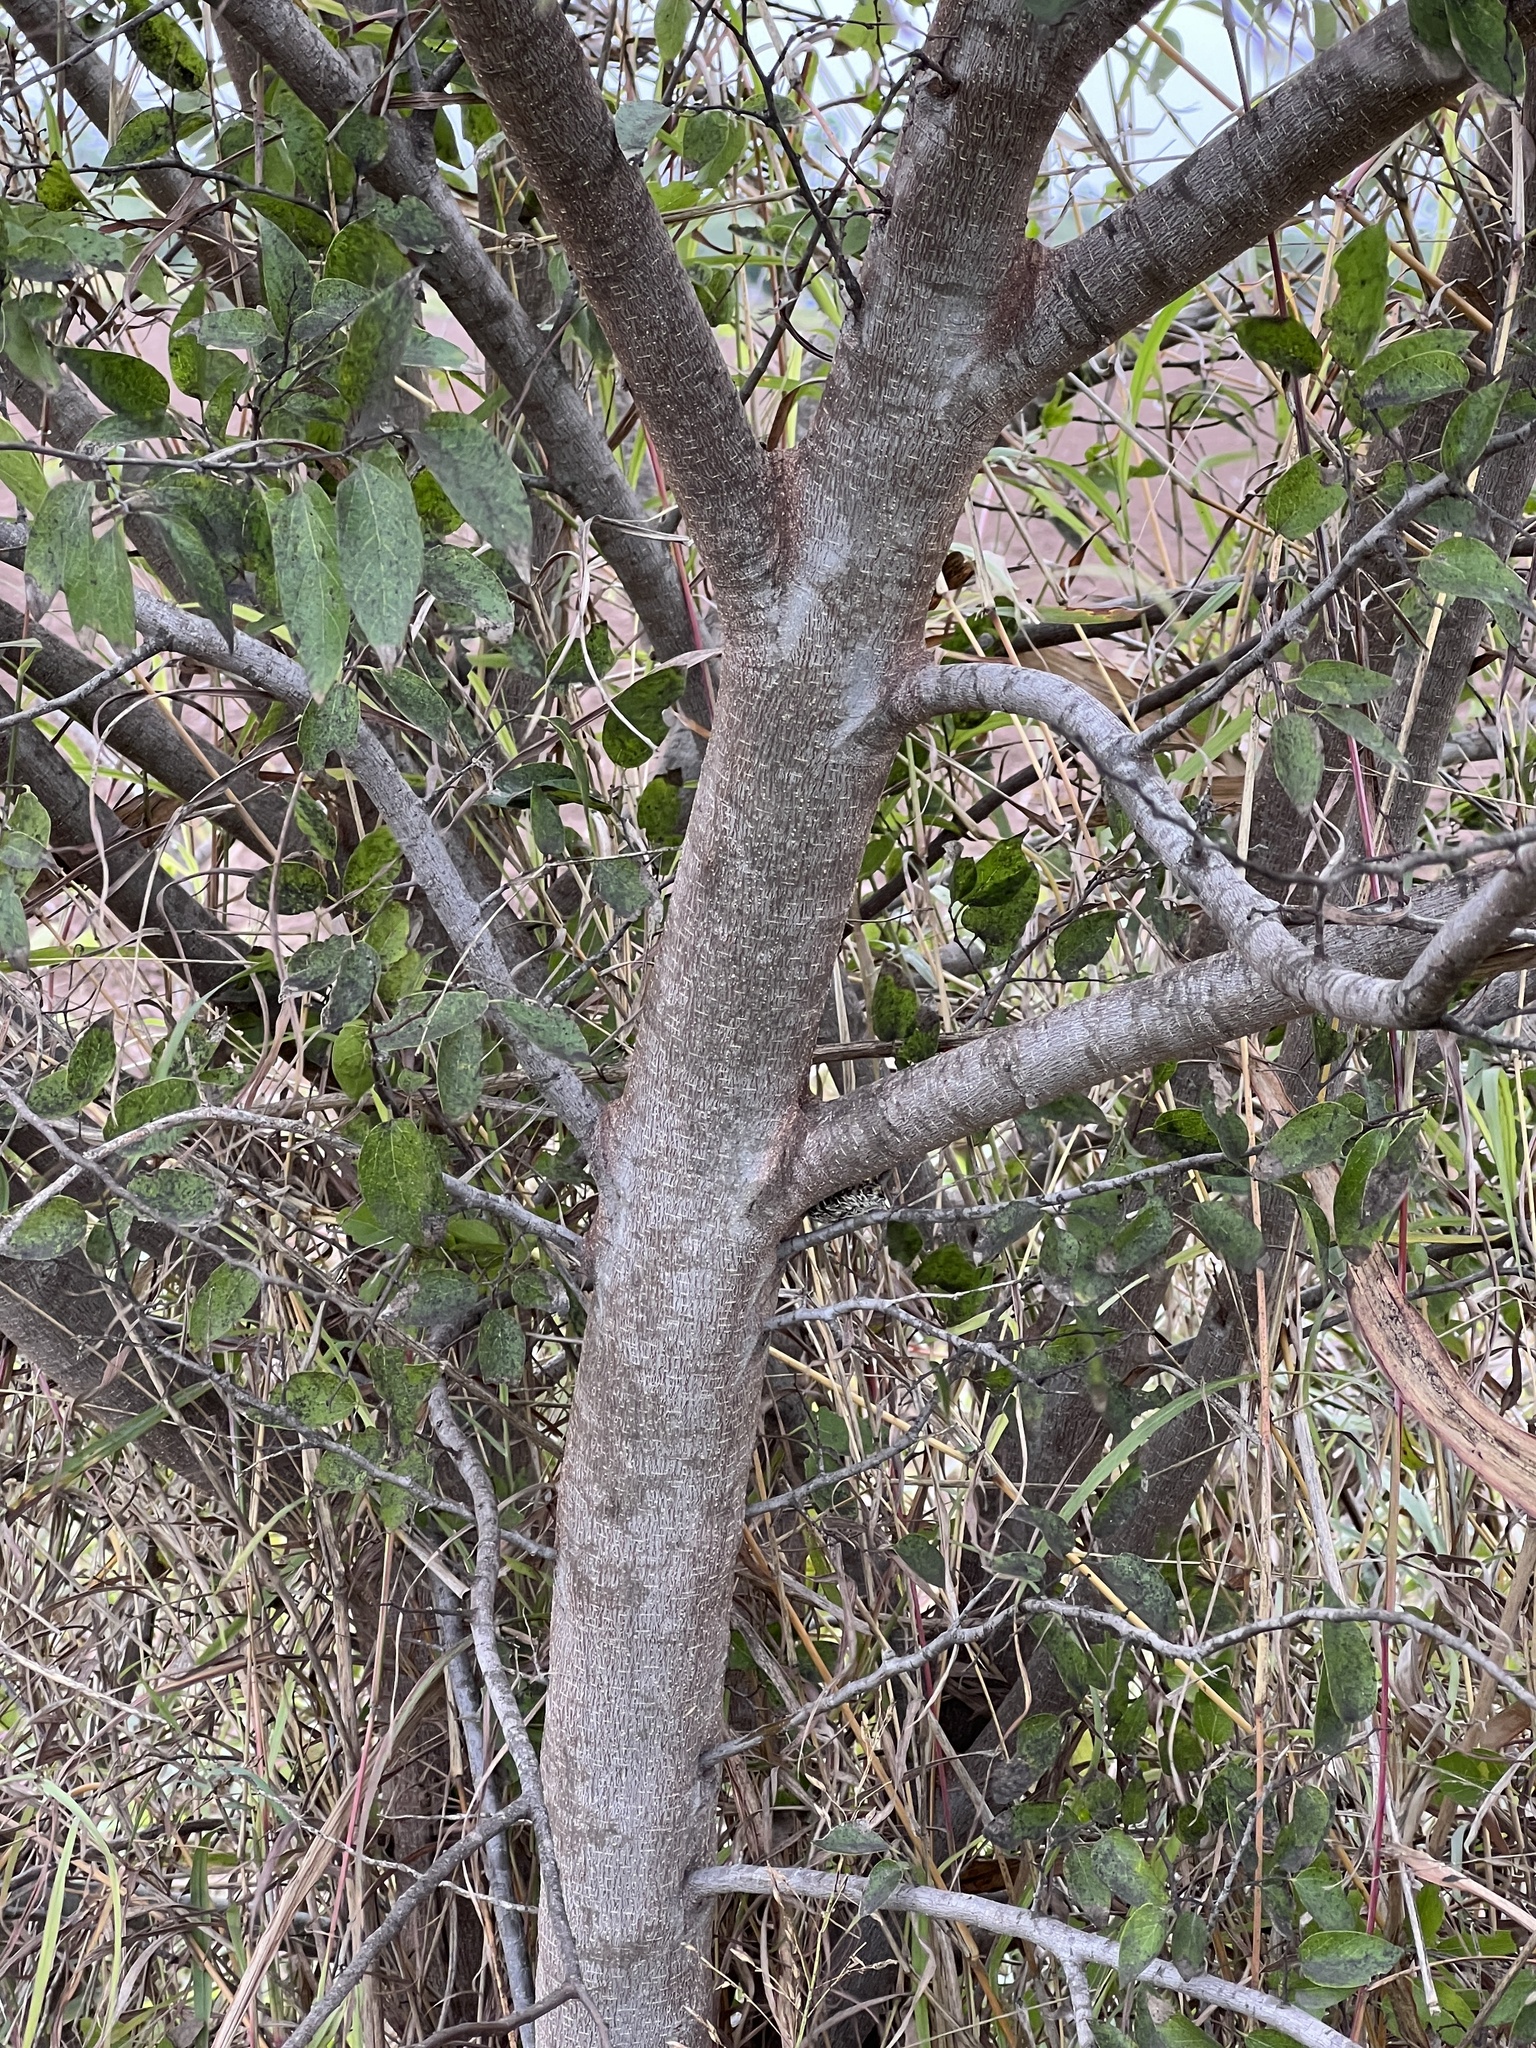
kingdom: Plantae
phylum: Tracheophyta
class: Magnoliopsida
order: Rosales
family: Cannabaceae
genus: Celtis
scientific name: Celtis laevigata
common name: Sugarberry
